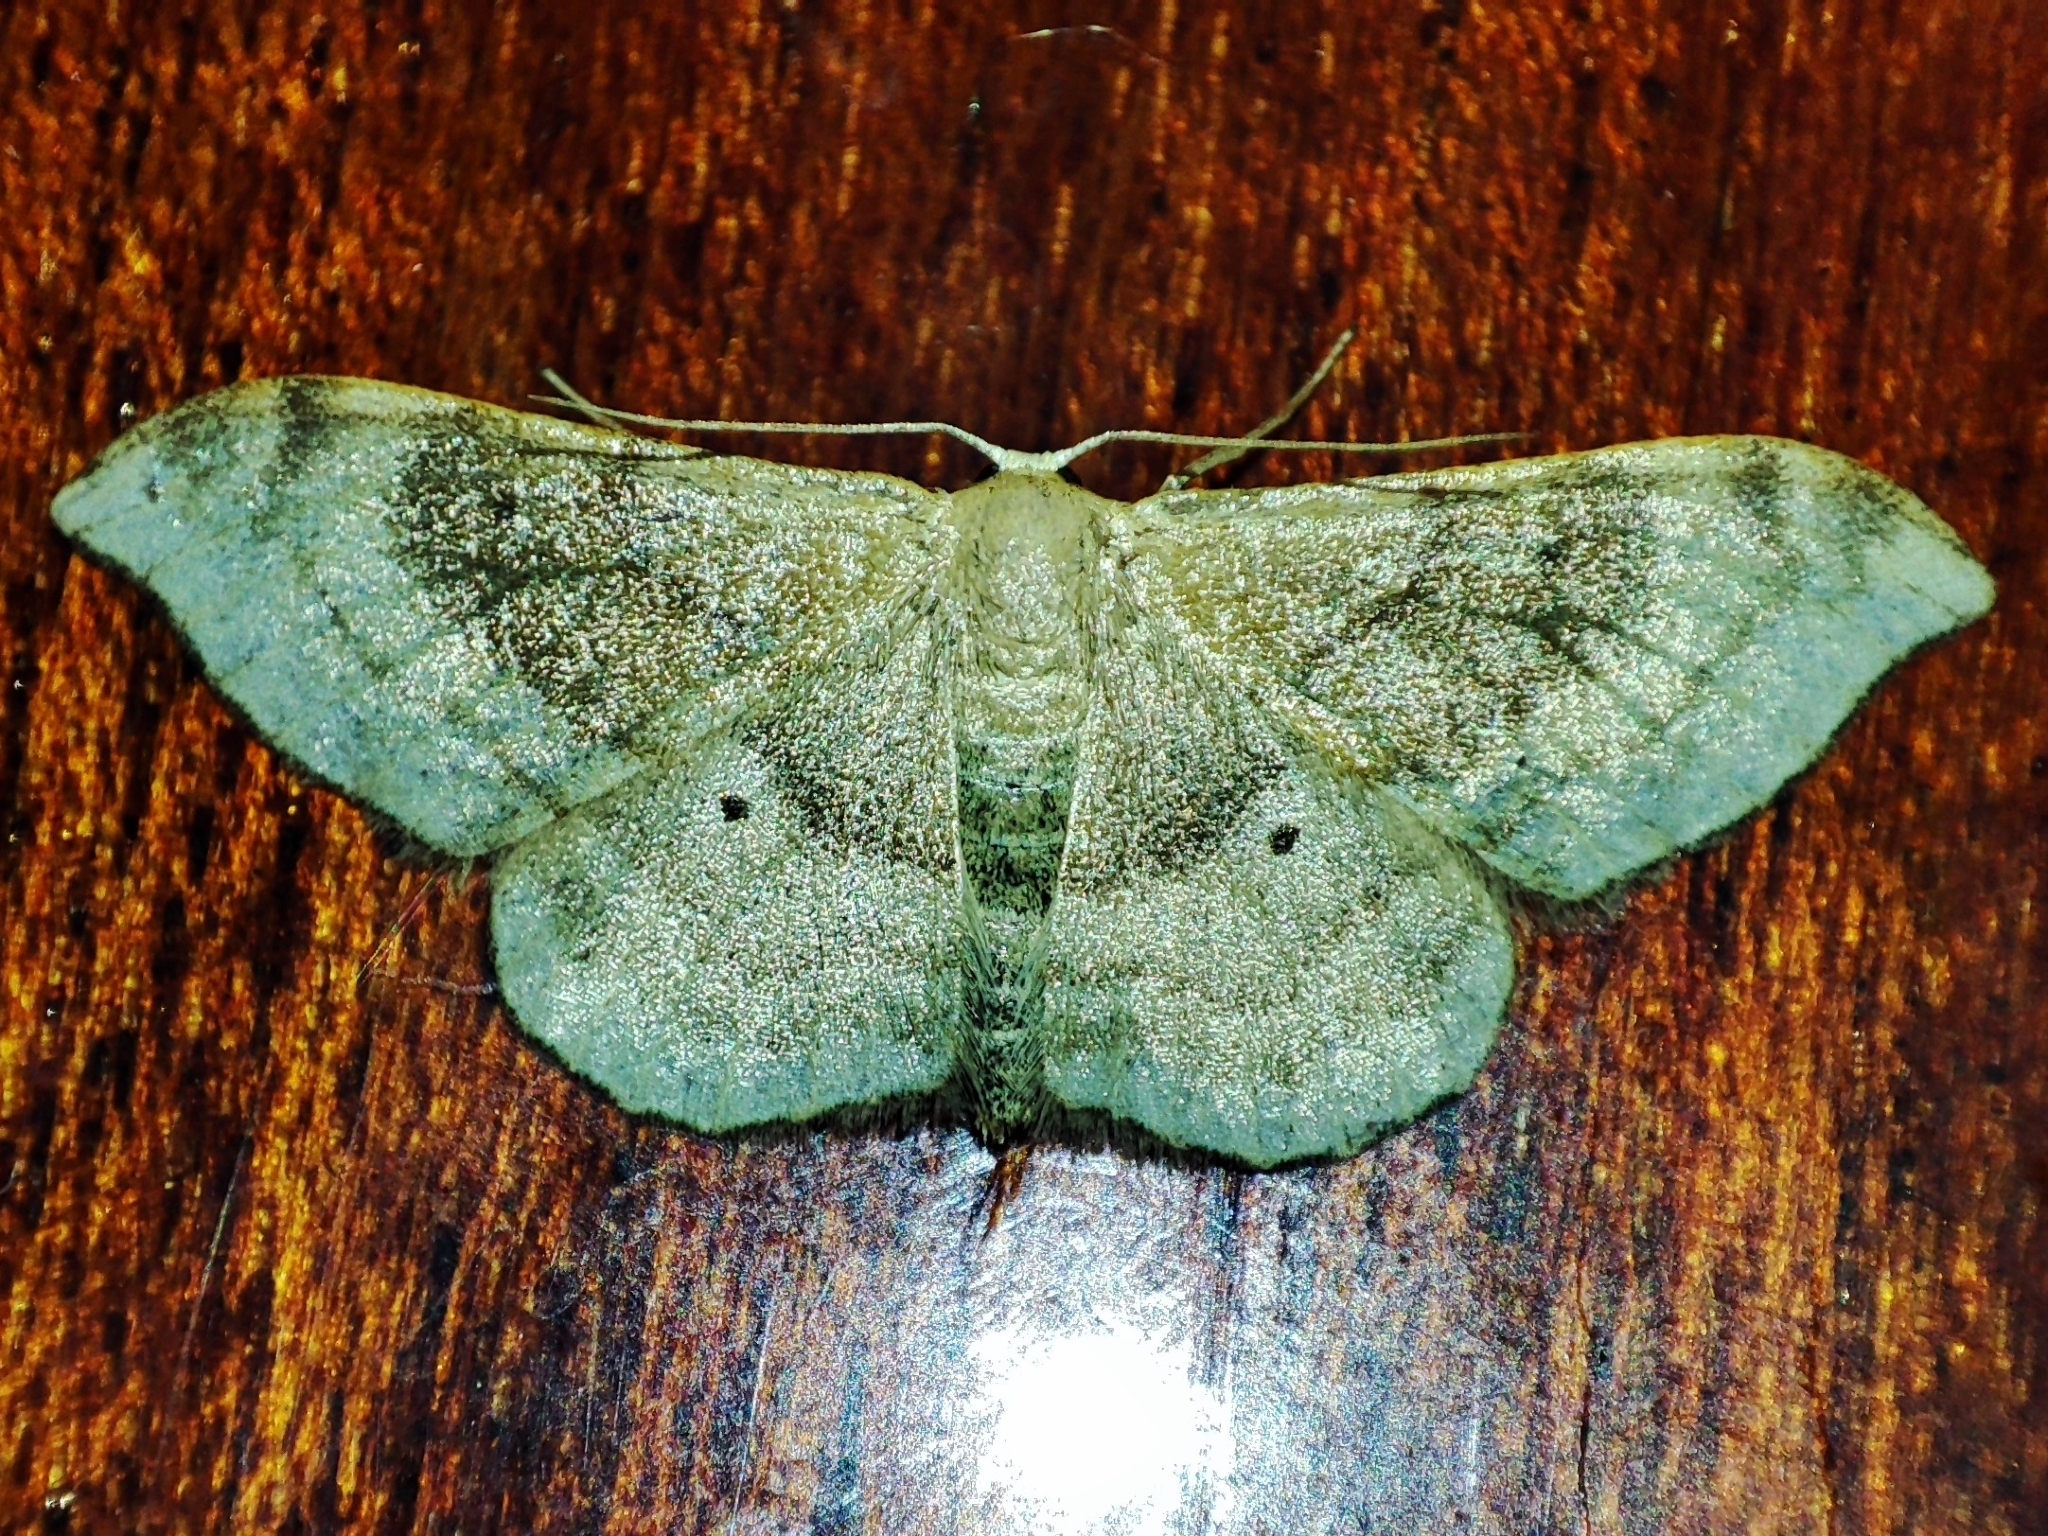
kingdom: Animalia
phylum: Arthropoda
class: Insecta
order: Lepidoptera
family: Geometridae
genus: Idaea
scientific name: Idaea degeneraria
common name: Portland ribbon wave
